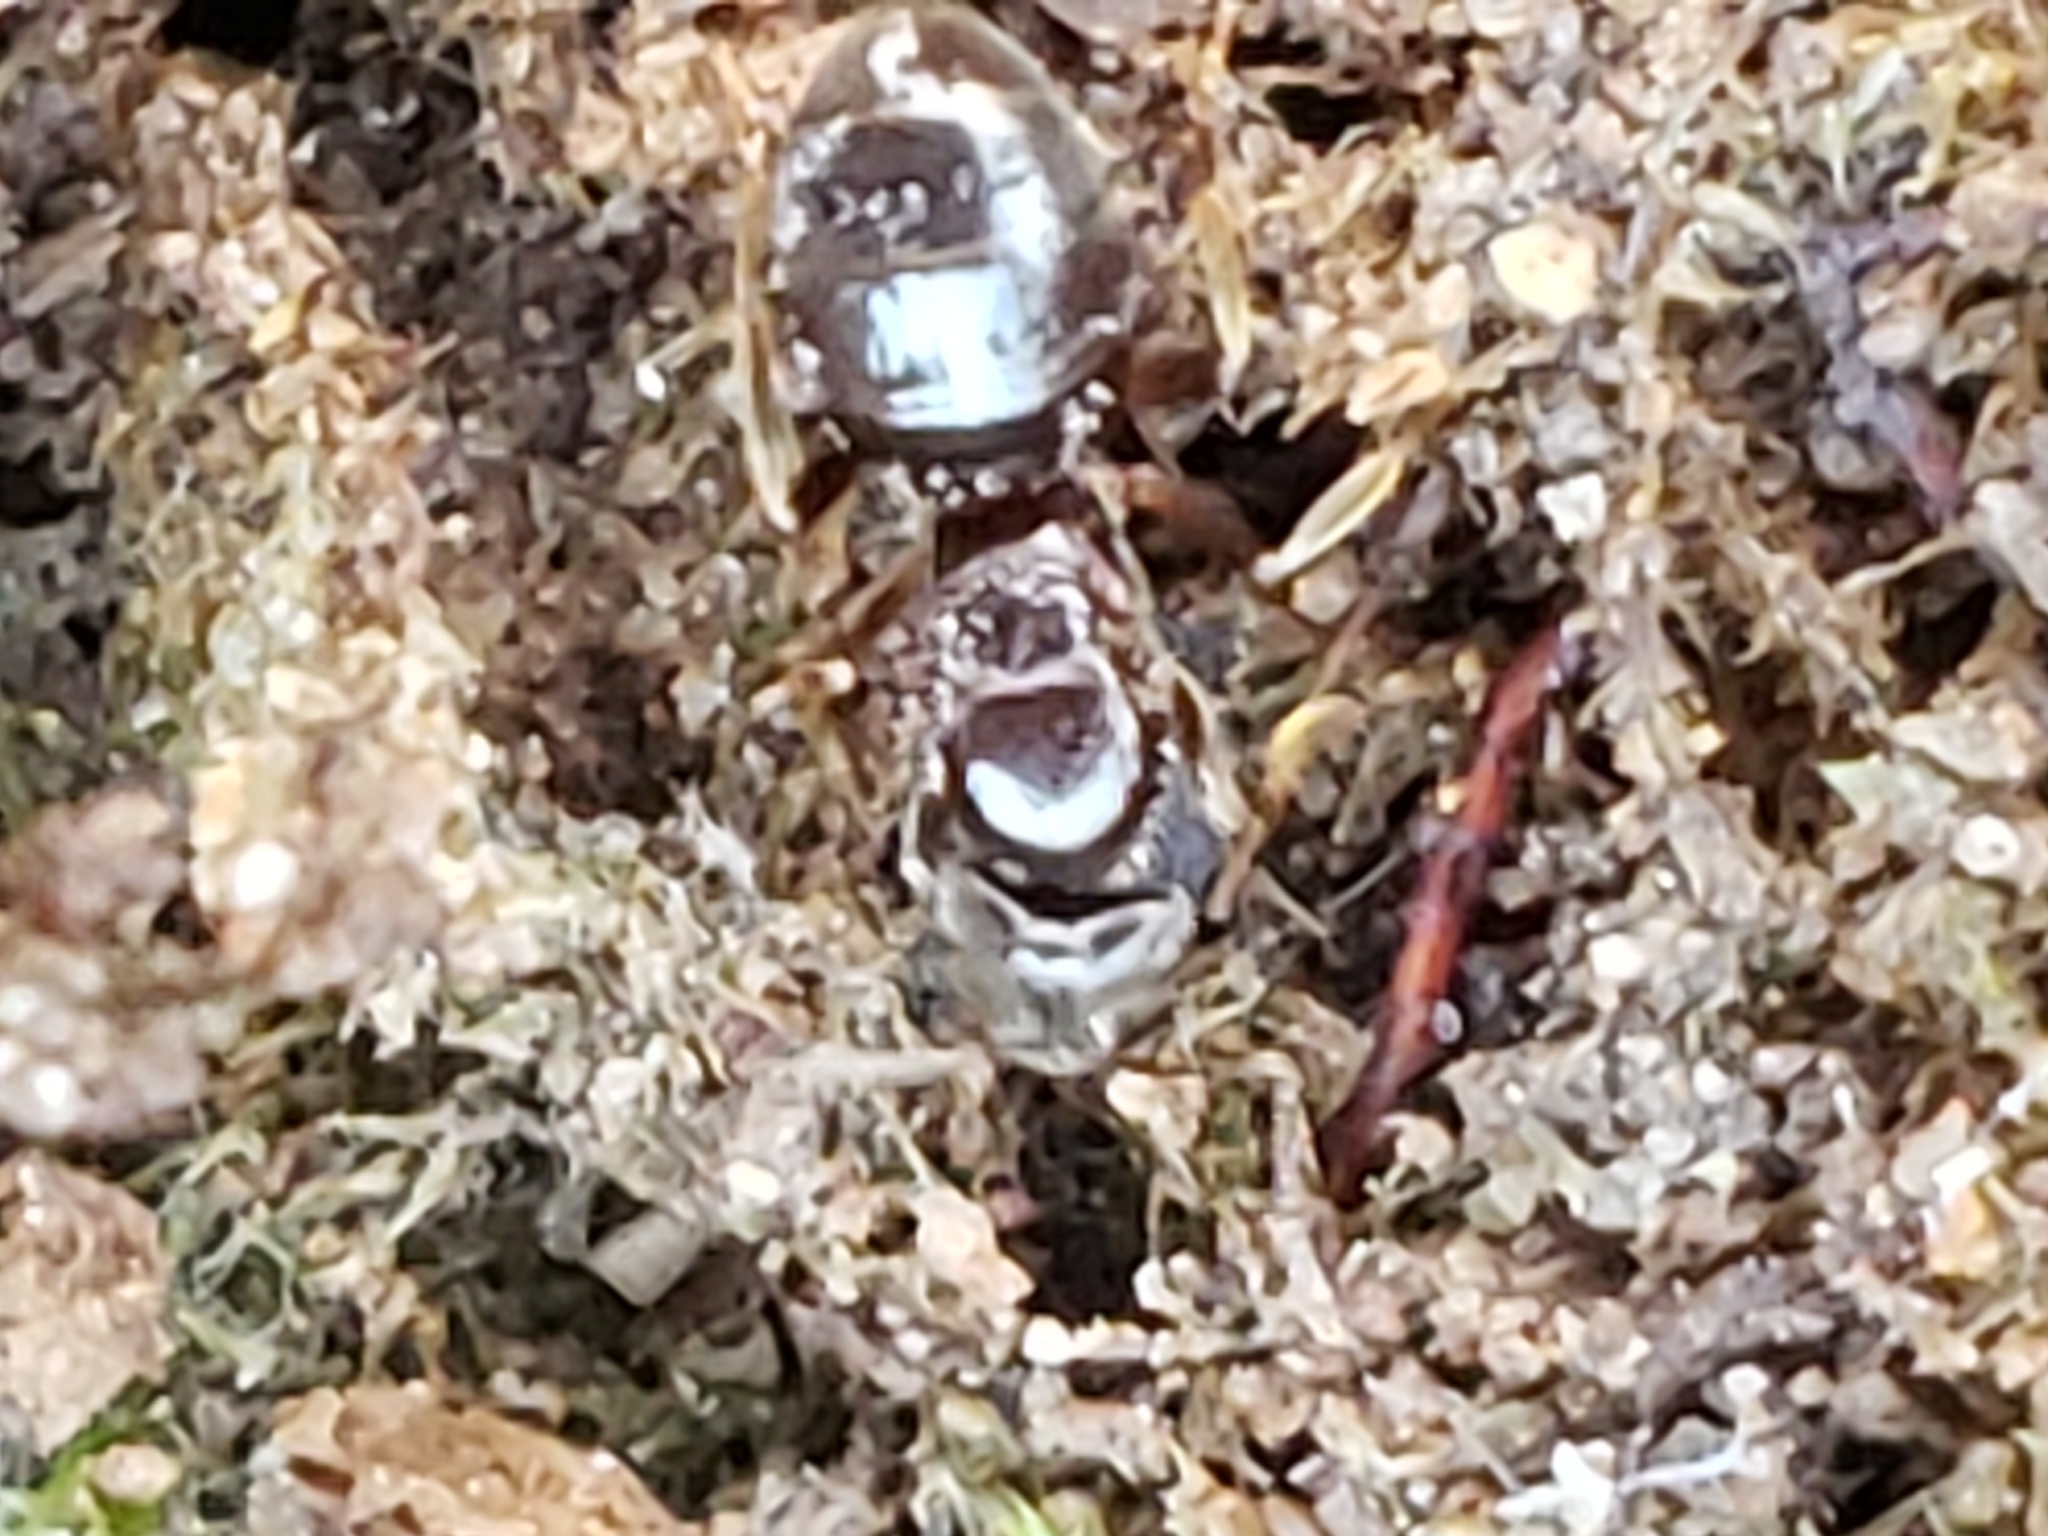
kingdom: Animalia
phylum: Arthropoda
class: Insecta
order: Hymenoptera
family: Formicidae
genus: Lasius
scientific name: Lasius aphidicola
